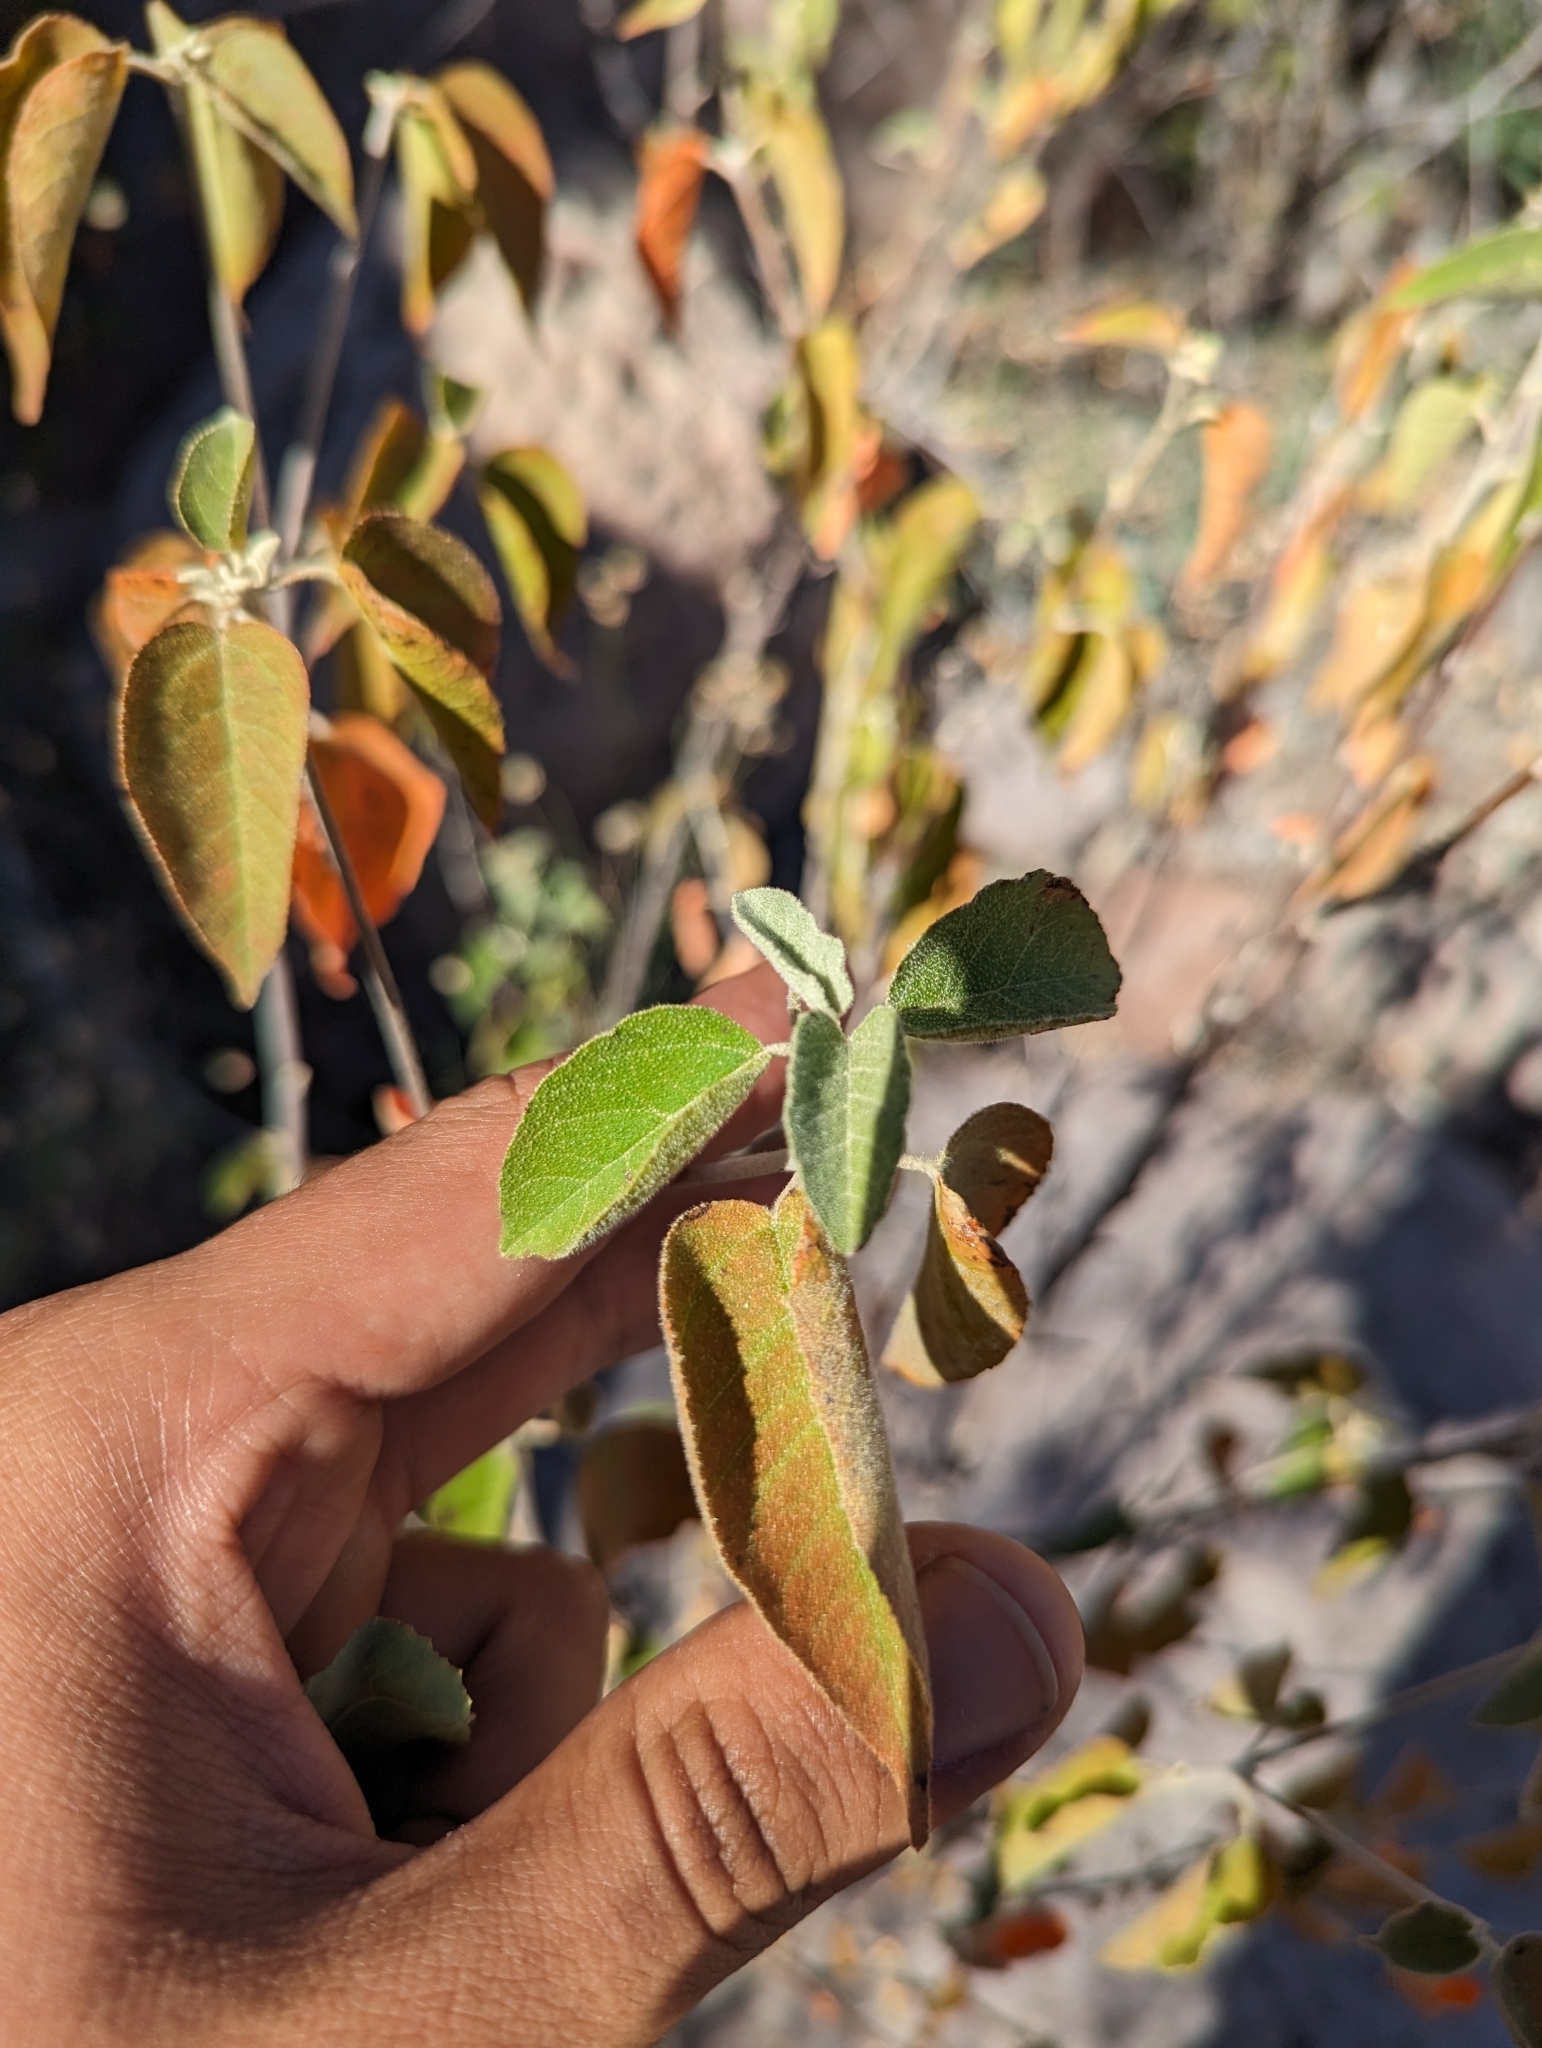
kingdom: Plantae
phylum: Tracheophyta
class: Magnoliopsida
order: Malpighiales
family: Euphorbiaceae
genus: Croton
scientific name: Croton sonorae
